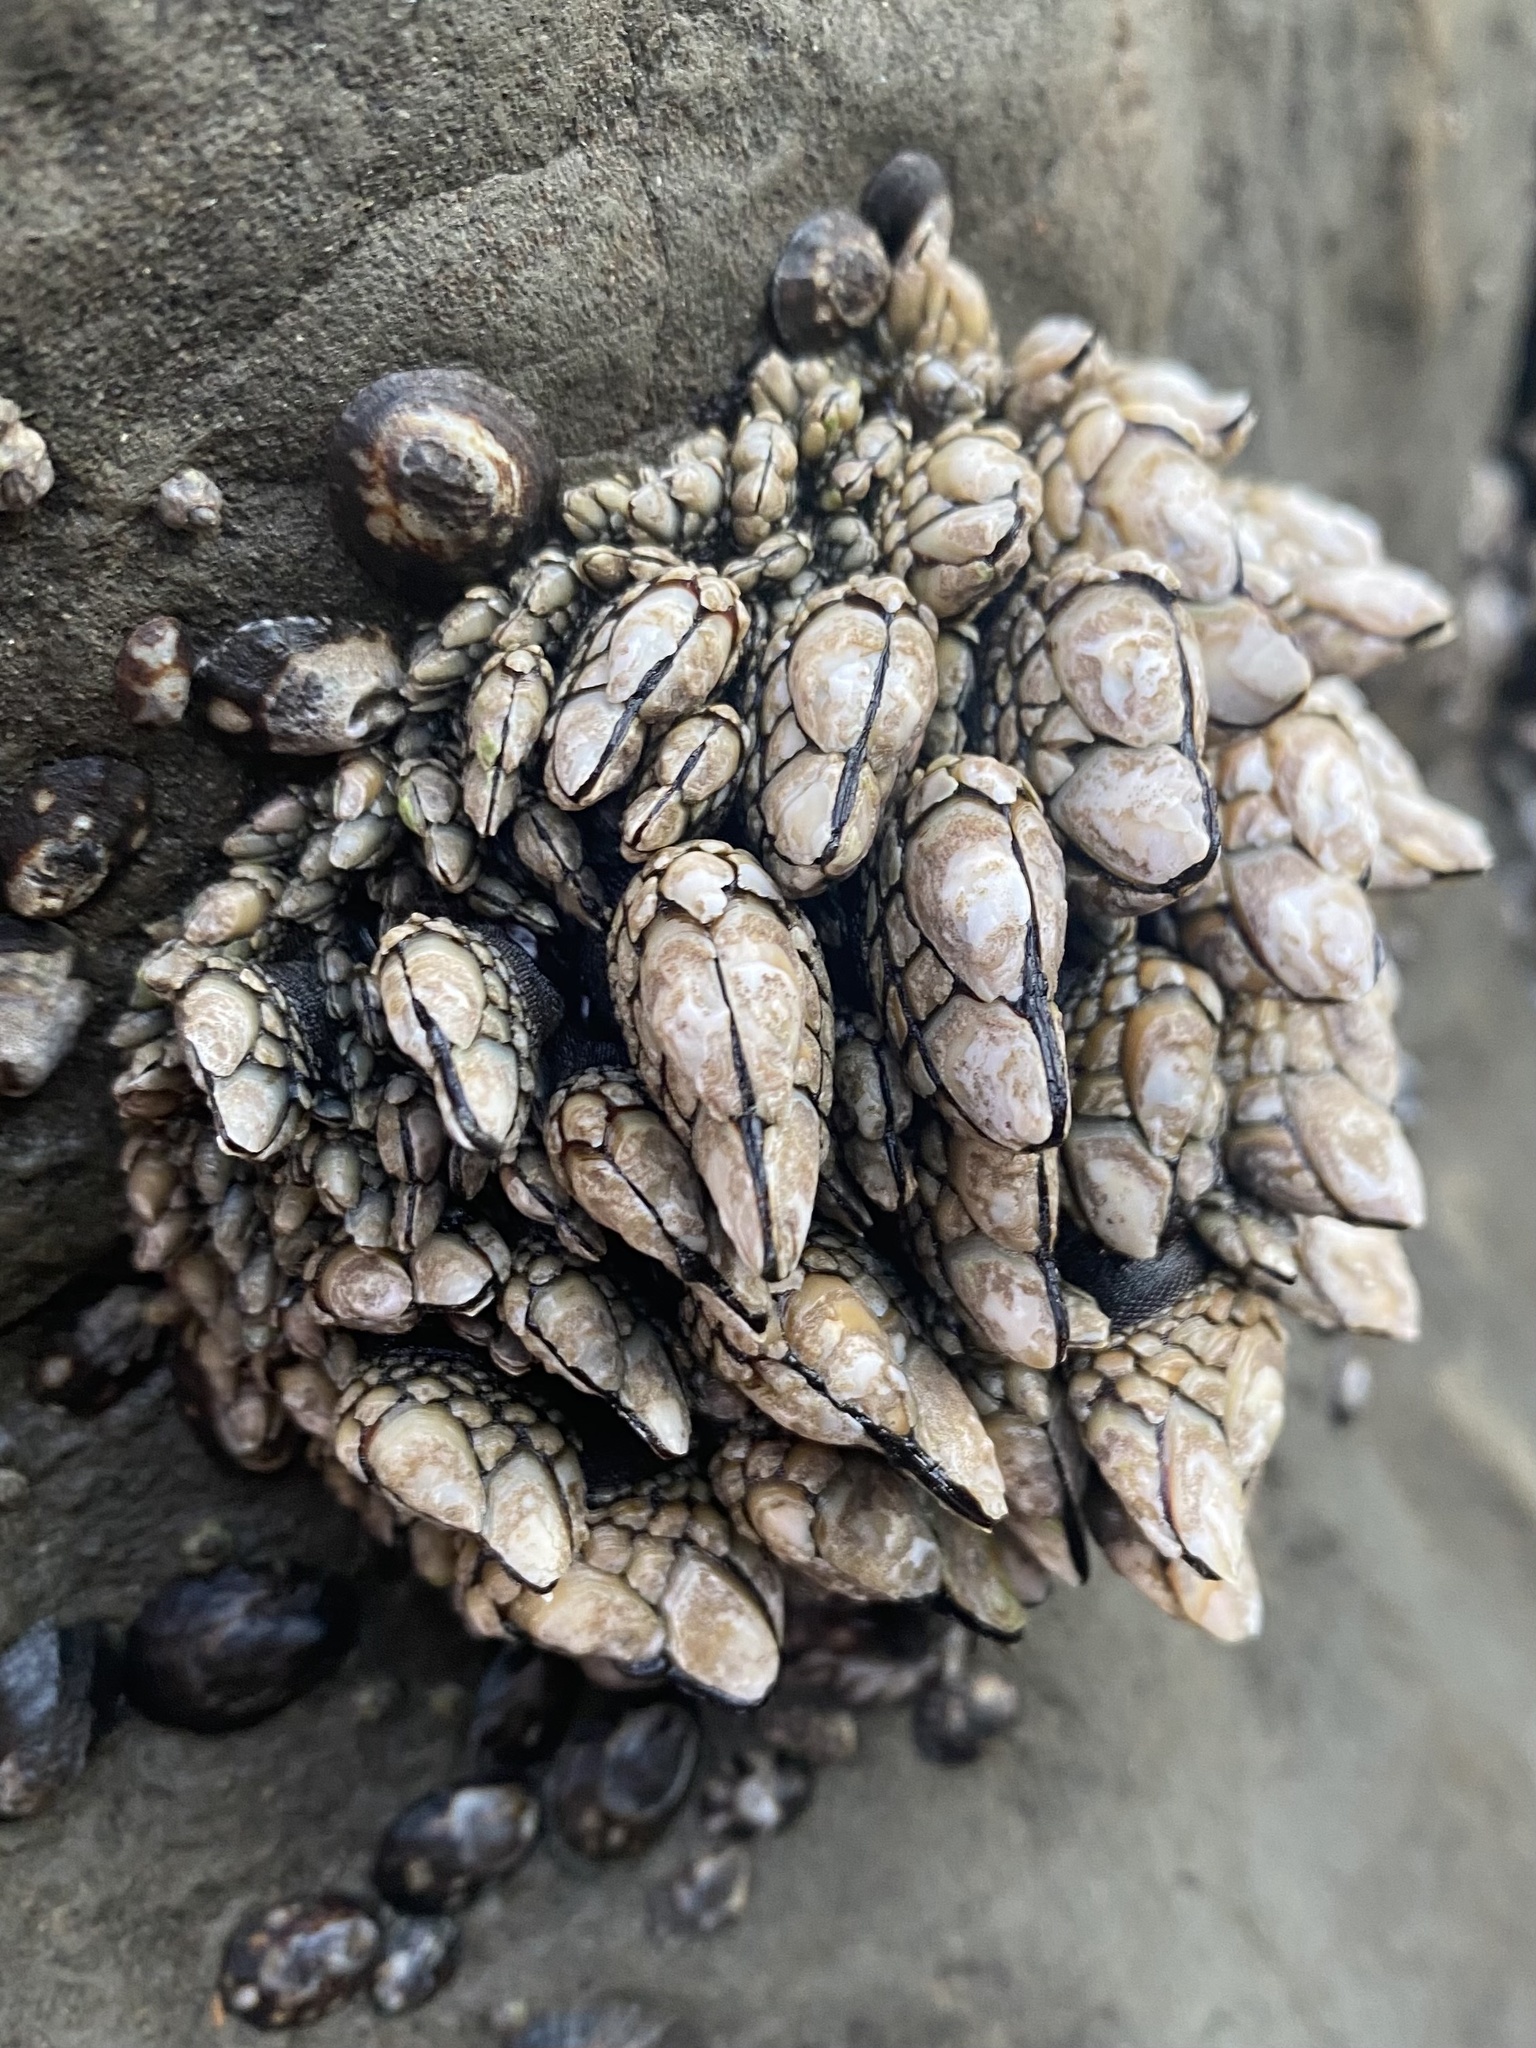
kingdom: Animalia
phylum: Arthropoda
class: Maxillopoda
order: Pedunculata
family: Pollicipedidae
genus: Pollicipes
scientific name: Pollicipes polymerus
